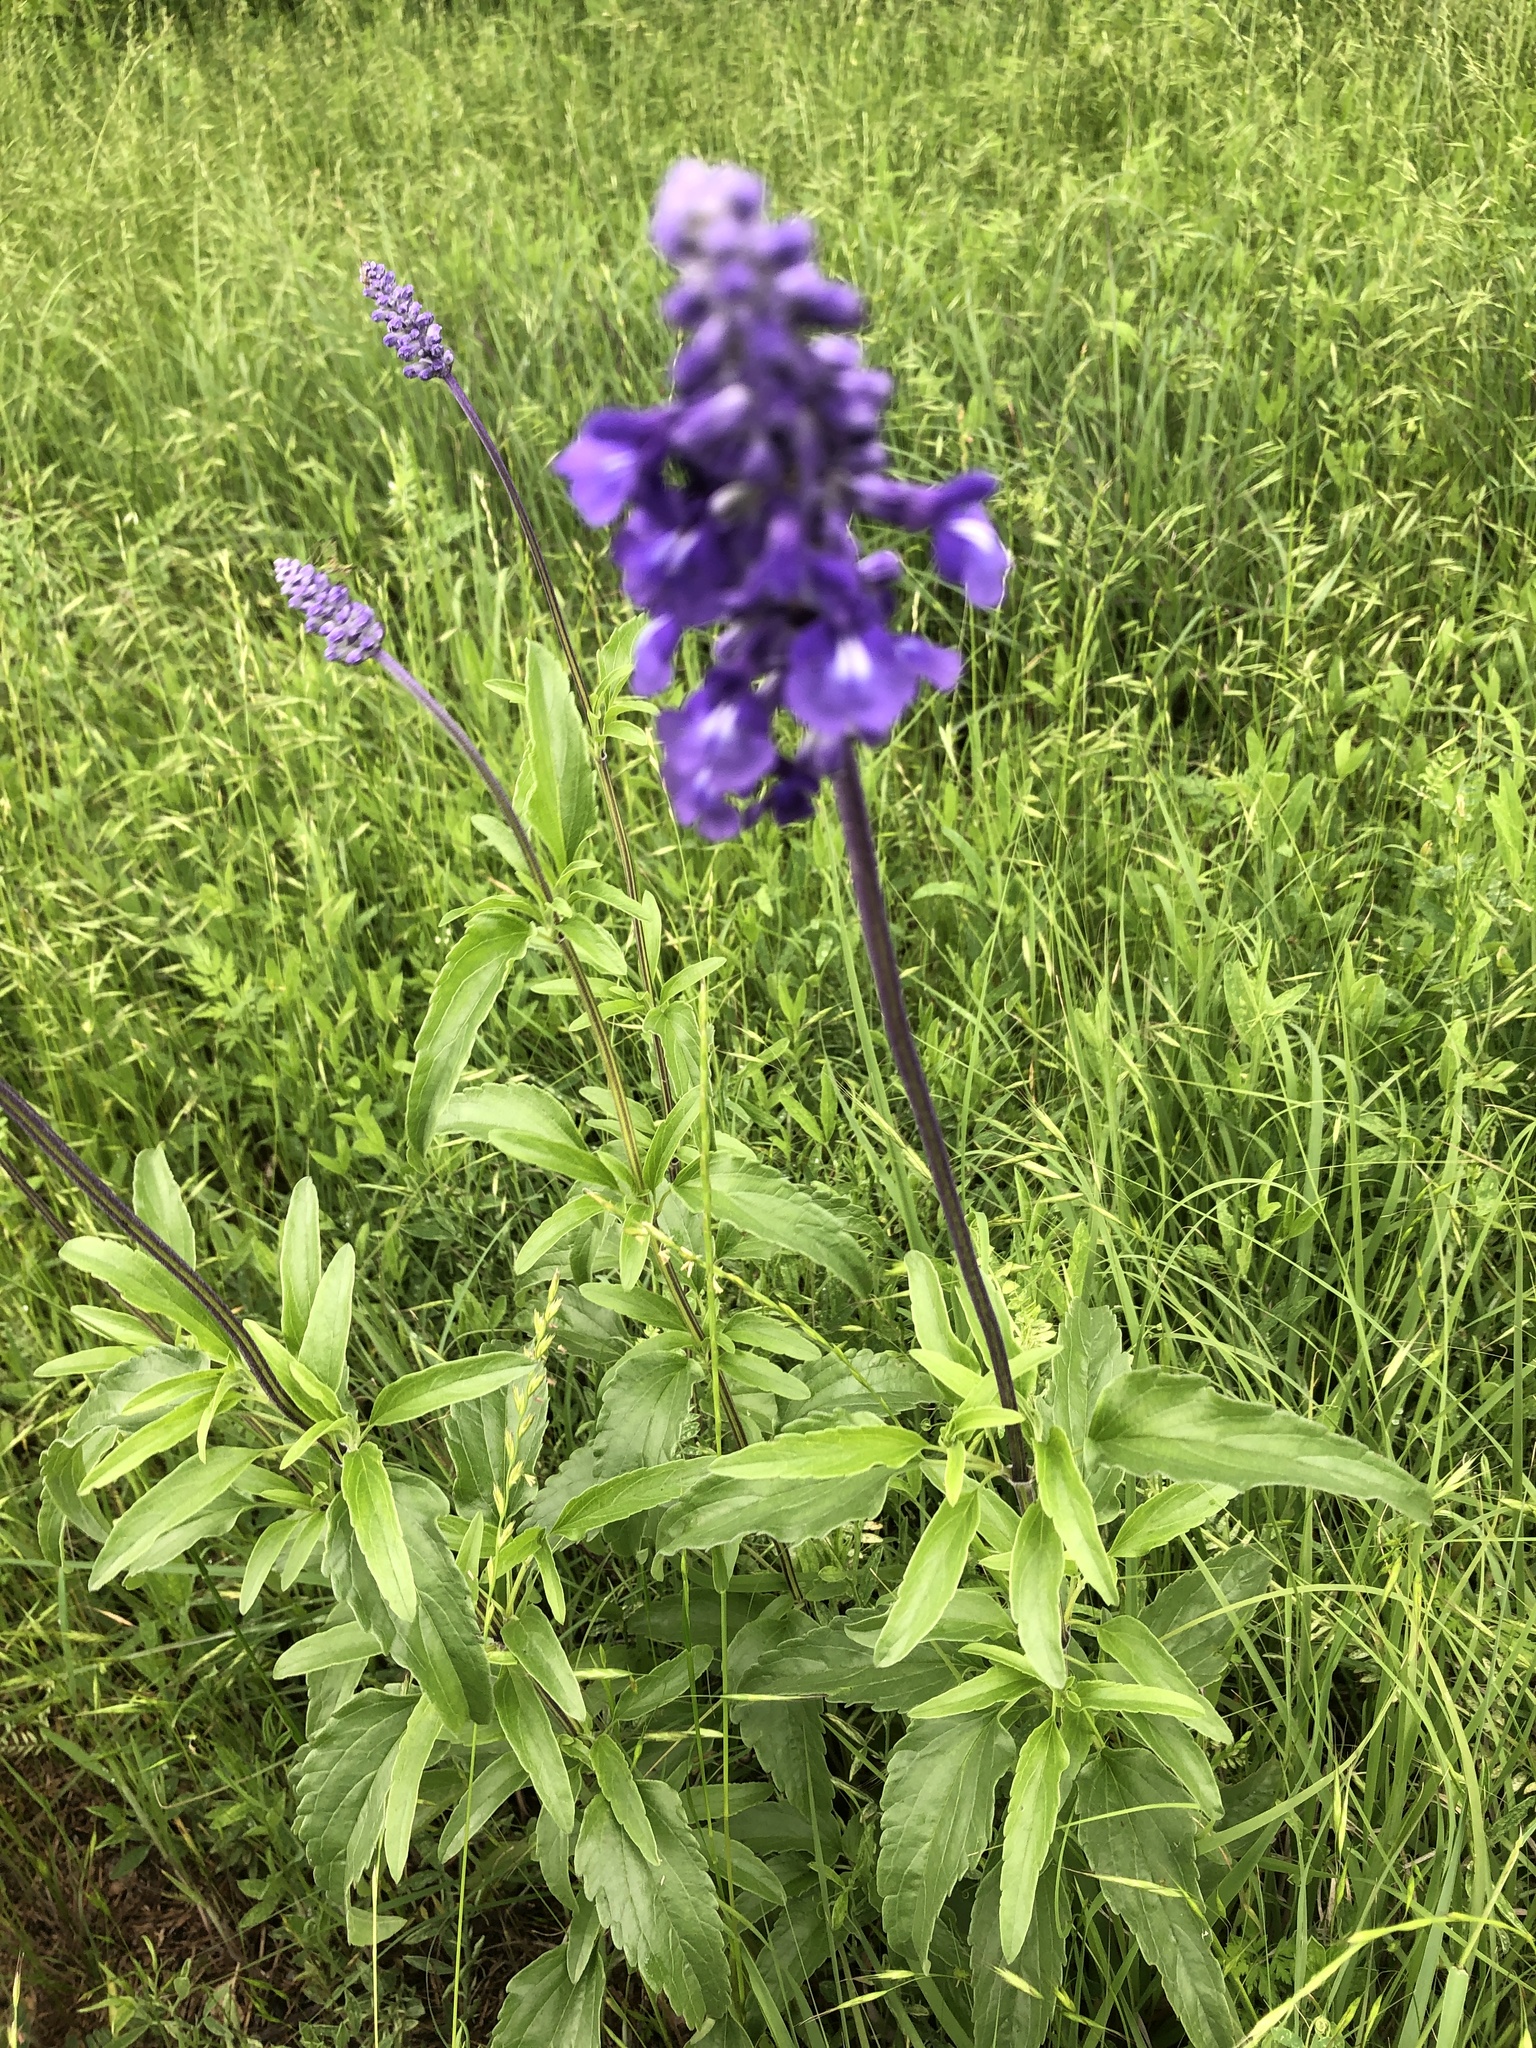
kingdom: Plantae
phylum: Tracheophyta
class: Magnoliopsida
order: Lamiales
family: Lamiaceae
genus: Salvia
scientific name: Salvia farinacea
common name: Mealy sage
